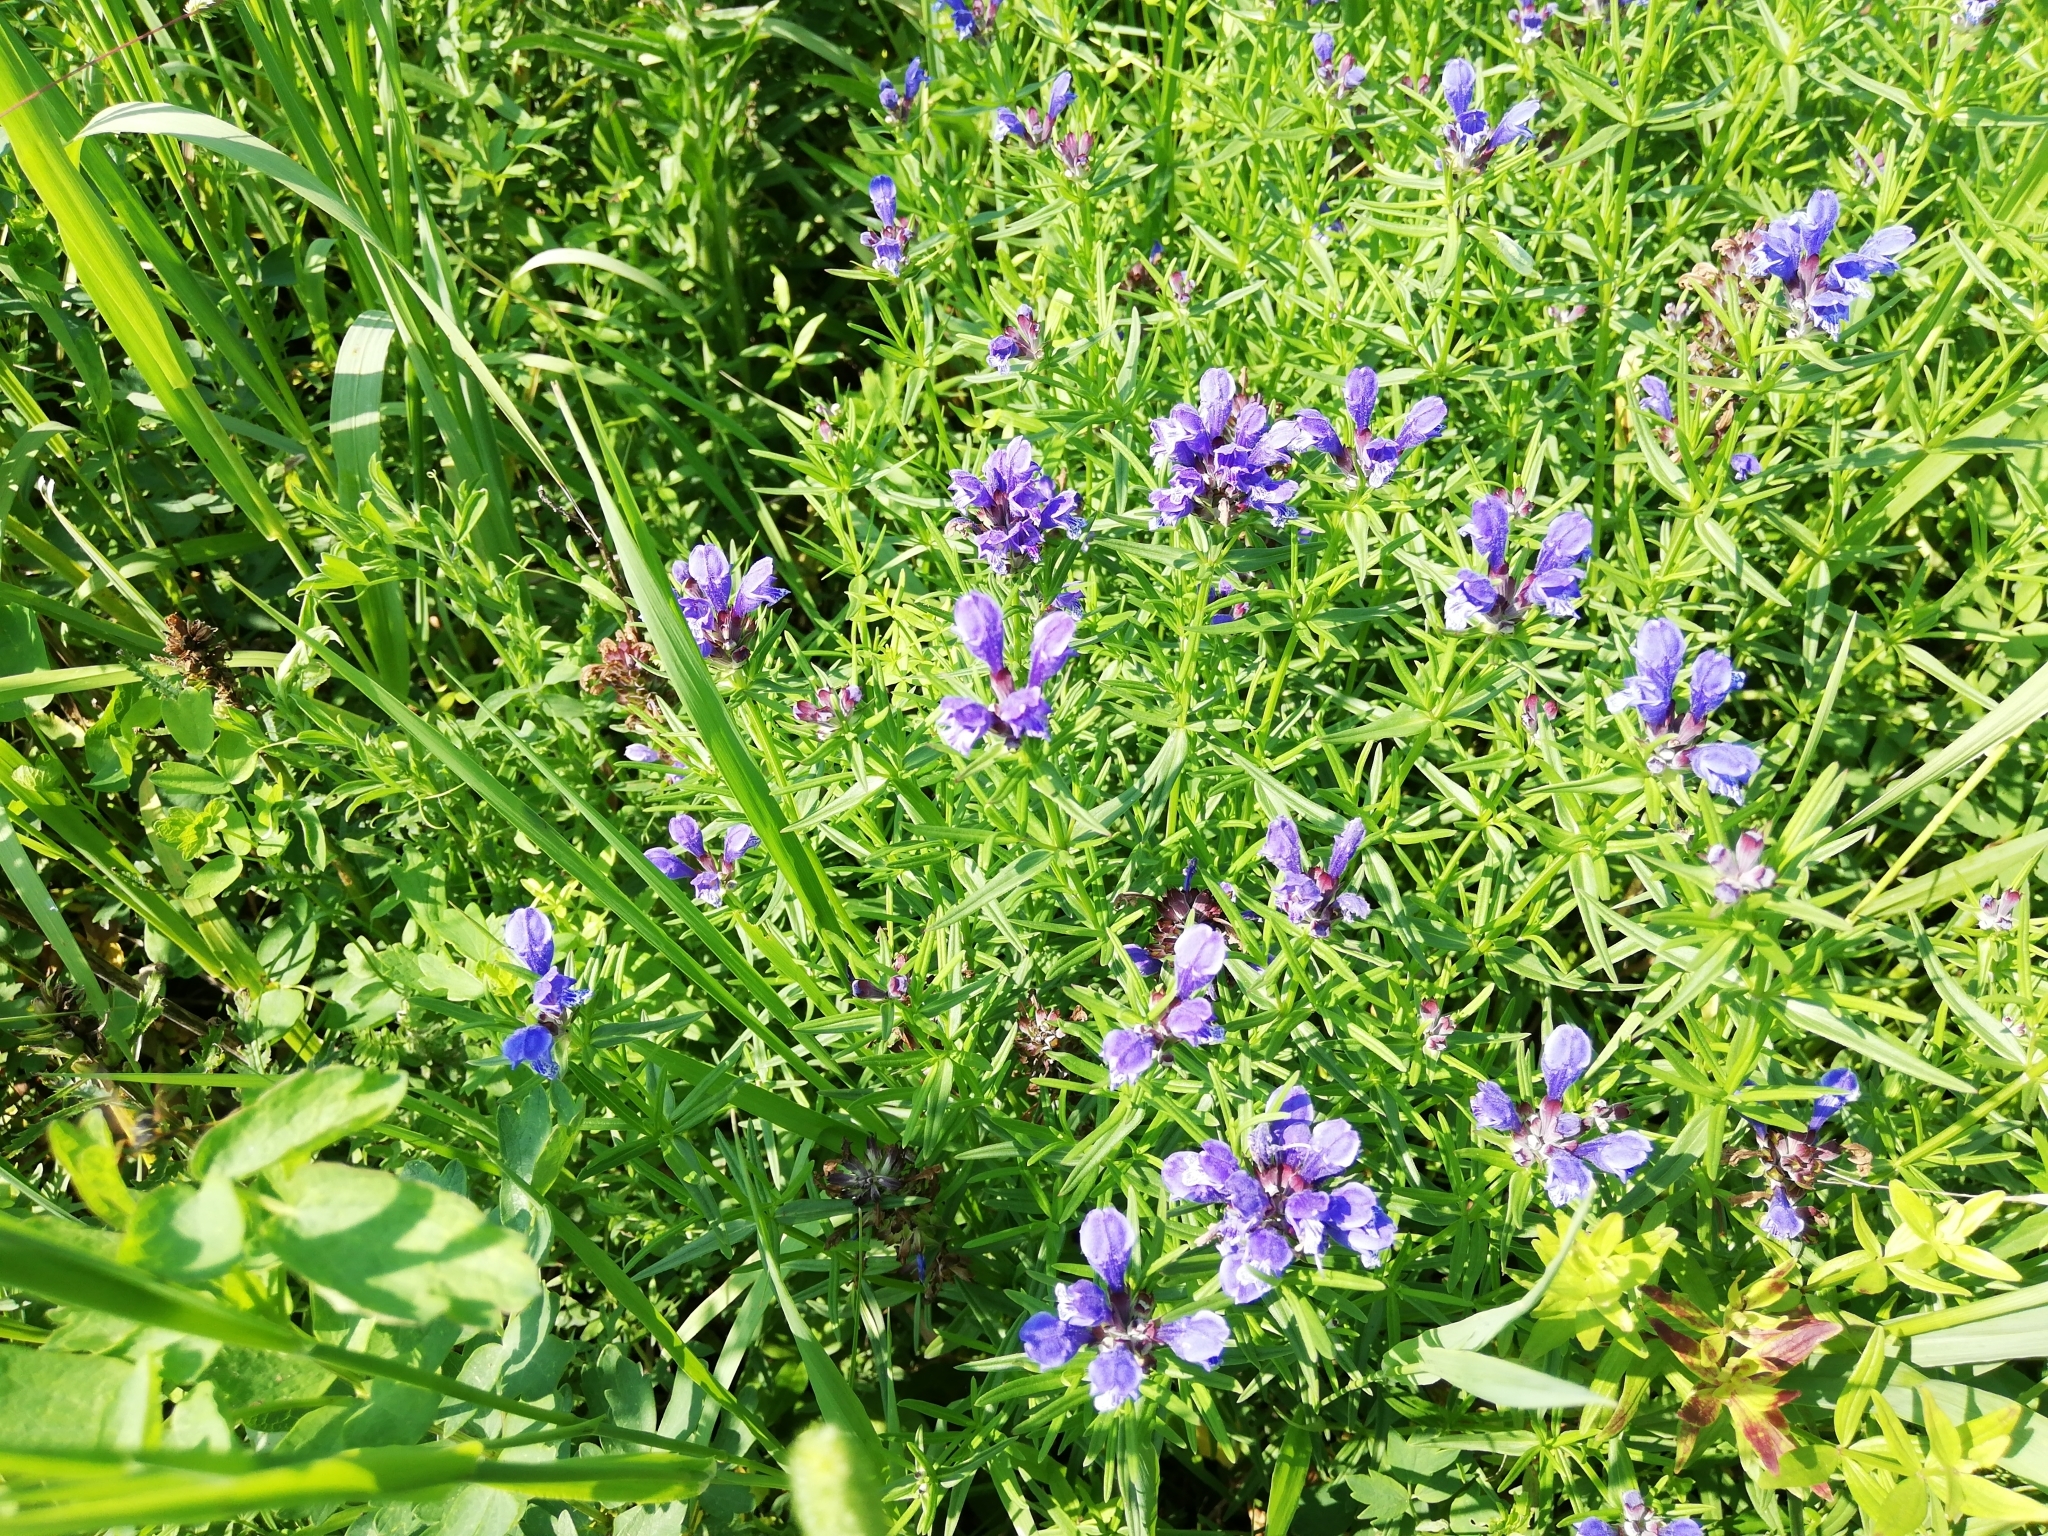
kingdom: Plantae
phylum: Tracheophyta
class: Magnoliopsida
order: Lamiales
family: Lamiaceae
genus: Dracocephalum
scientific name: Dracocephalum ruyschiana
